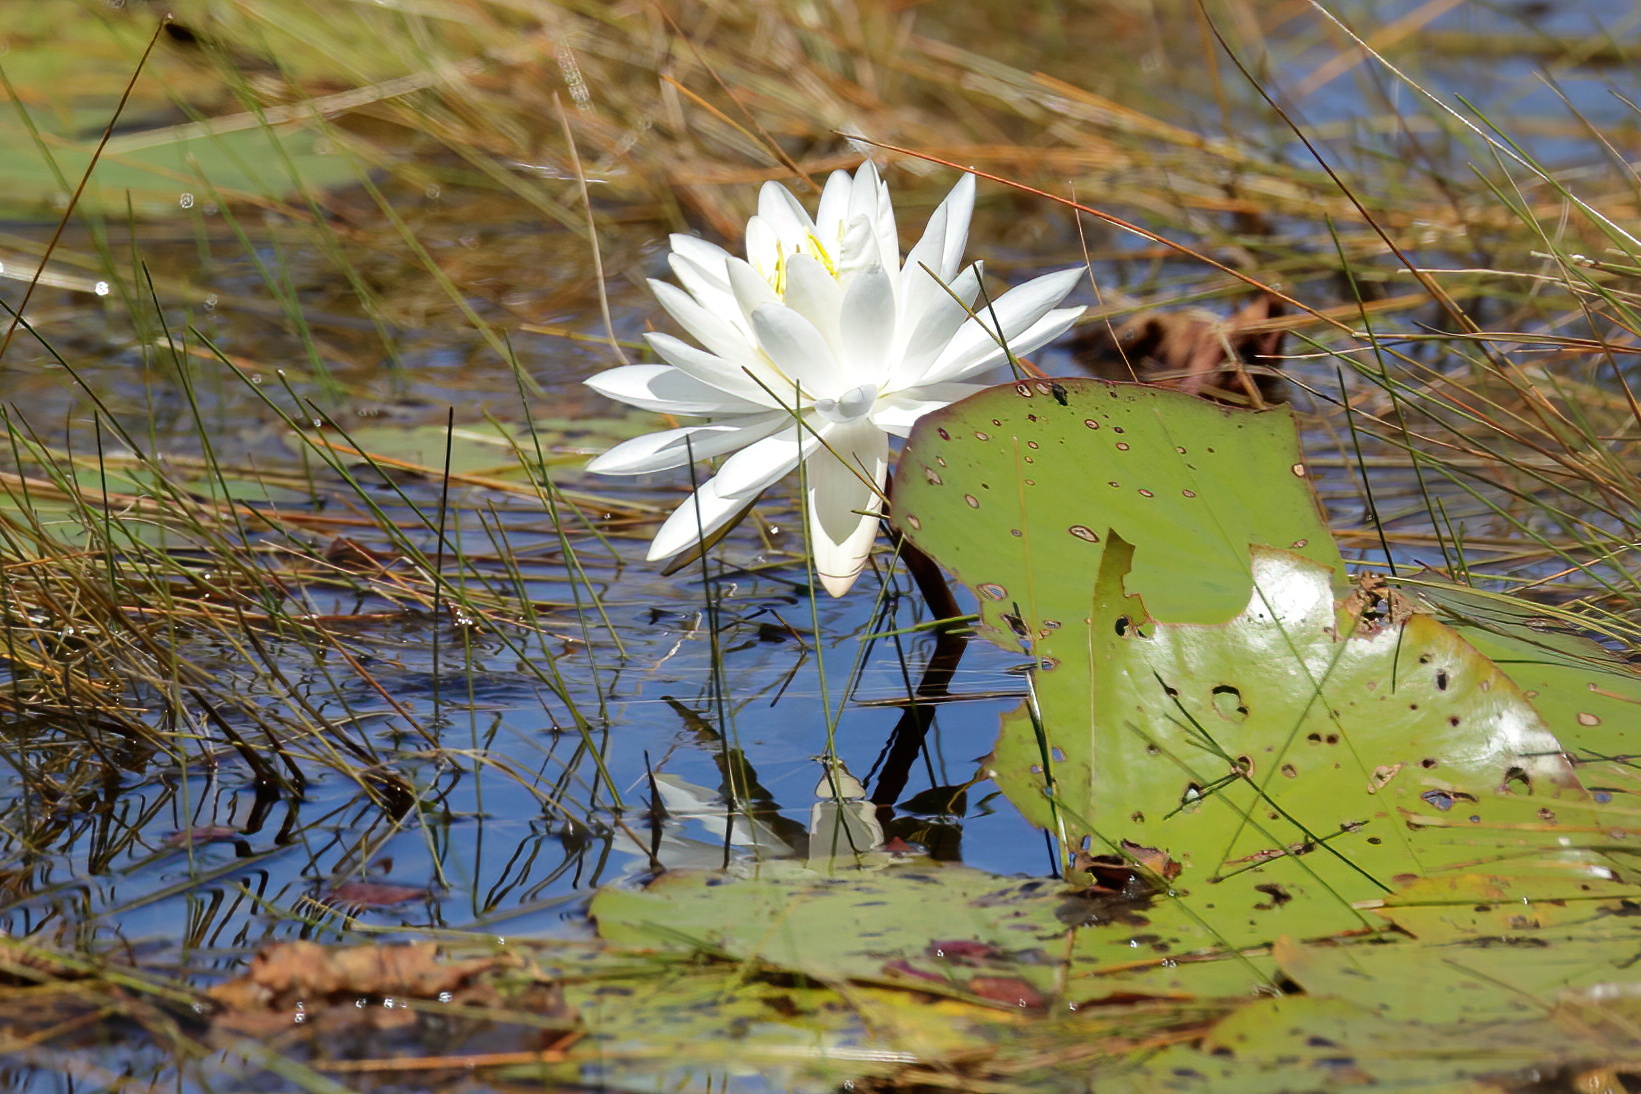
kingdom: Plantae
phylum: Tracheophyta
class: Magnoliopsida
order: Nymphaeales
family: Nymphaeaceae
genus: Nymphaea
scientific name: Nymphaea odorata
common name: Fragrant water-lily
